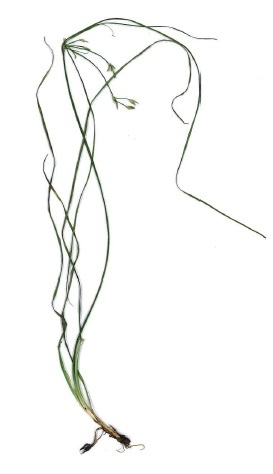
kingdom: Plantae
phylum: Tracheophyta
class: Liliopsida
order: Poales
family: Juncaceae
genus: Juncus
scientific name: Juncus tenuis
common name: Slender rush
